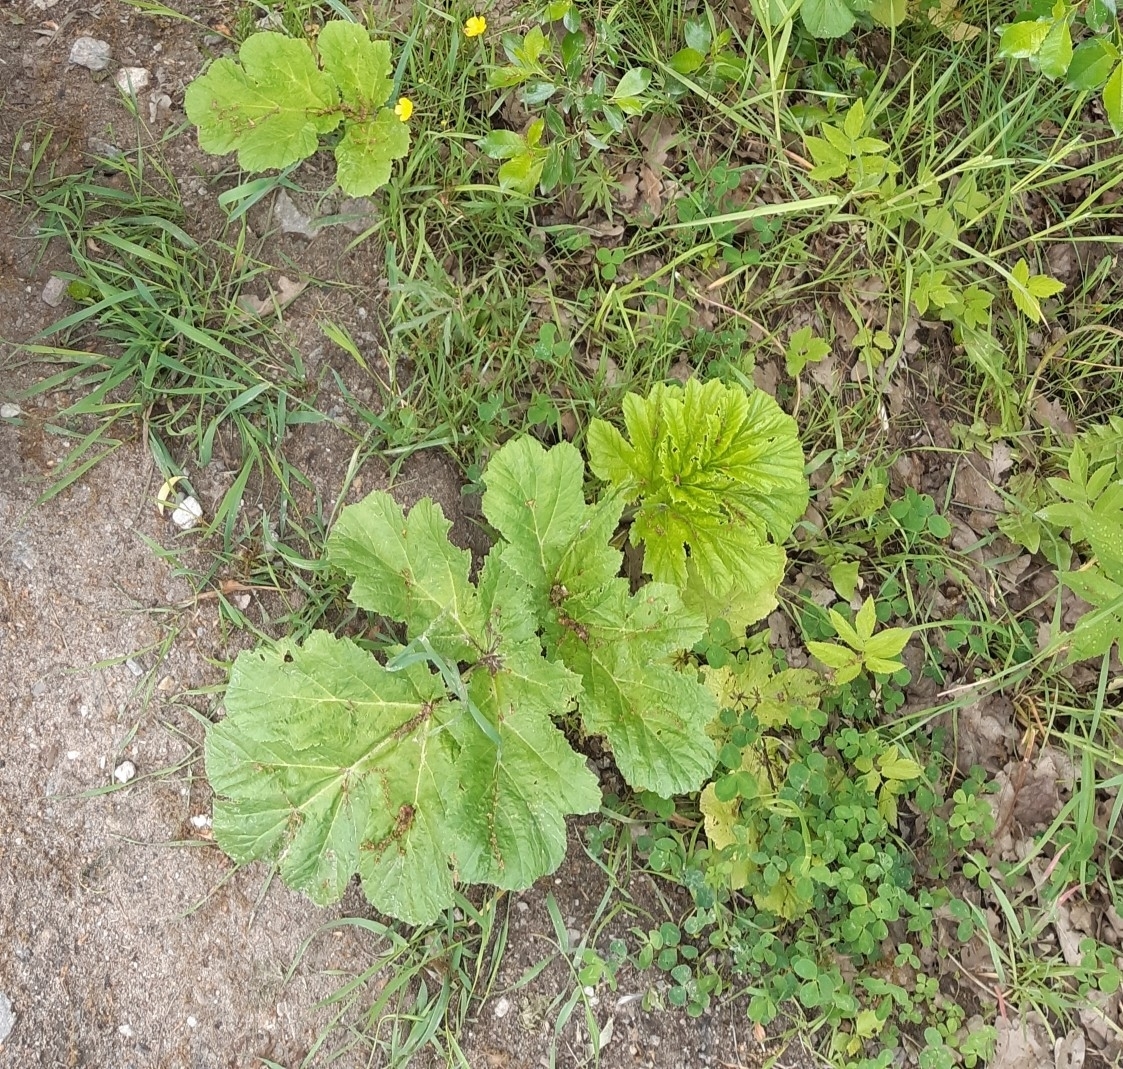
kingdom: Plantae
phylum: Tracheophyta
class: Magnoliopsida
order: Apiales
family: Apiaceae
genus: Heracleum
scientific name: Heracleum sosnowskyi
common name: Sosnowsky's hogweed
